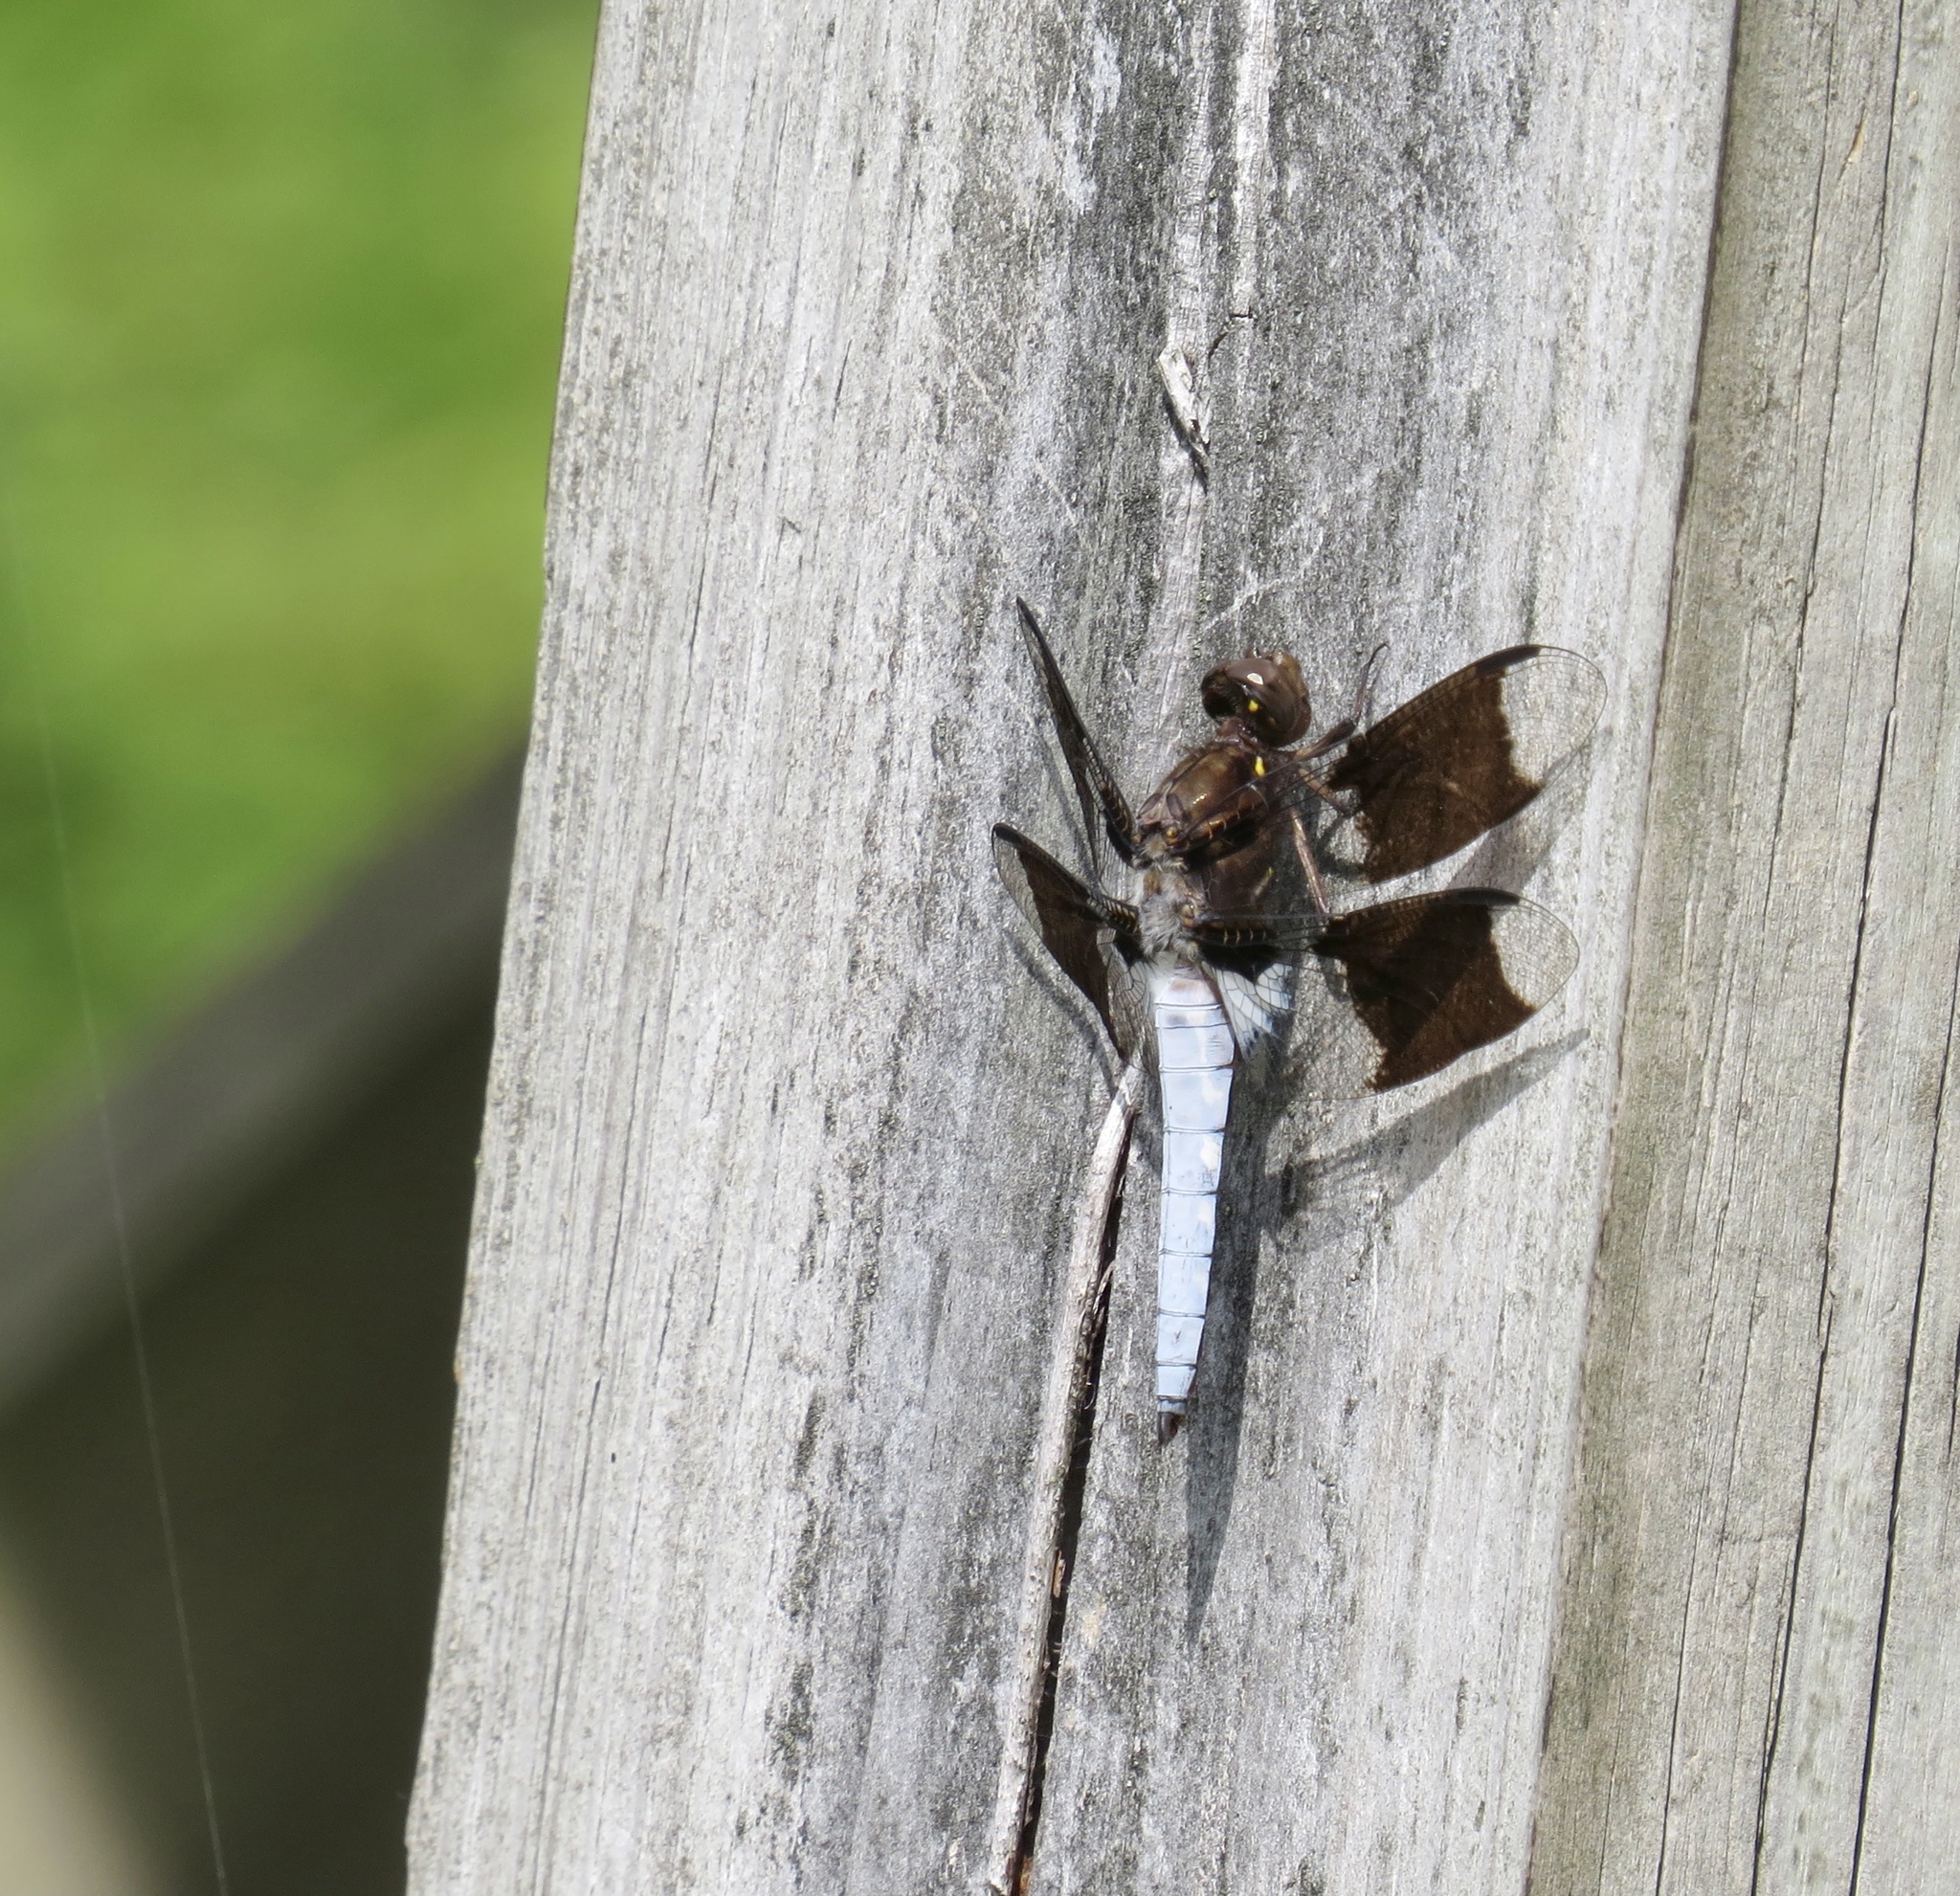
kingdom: Animalia
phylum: Arthropoda
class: Insecta
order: Odonata
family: Libellulidae
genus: Plathemis
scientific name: Plathemis lydia
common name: Common whitetail
